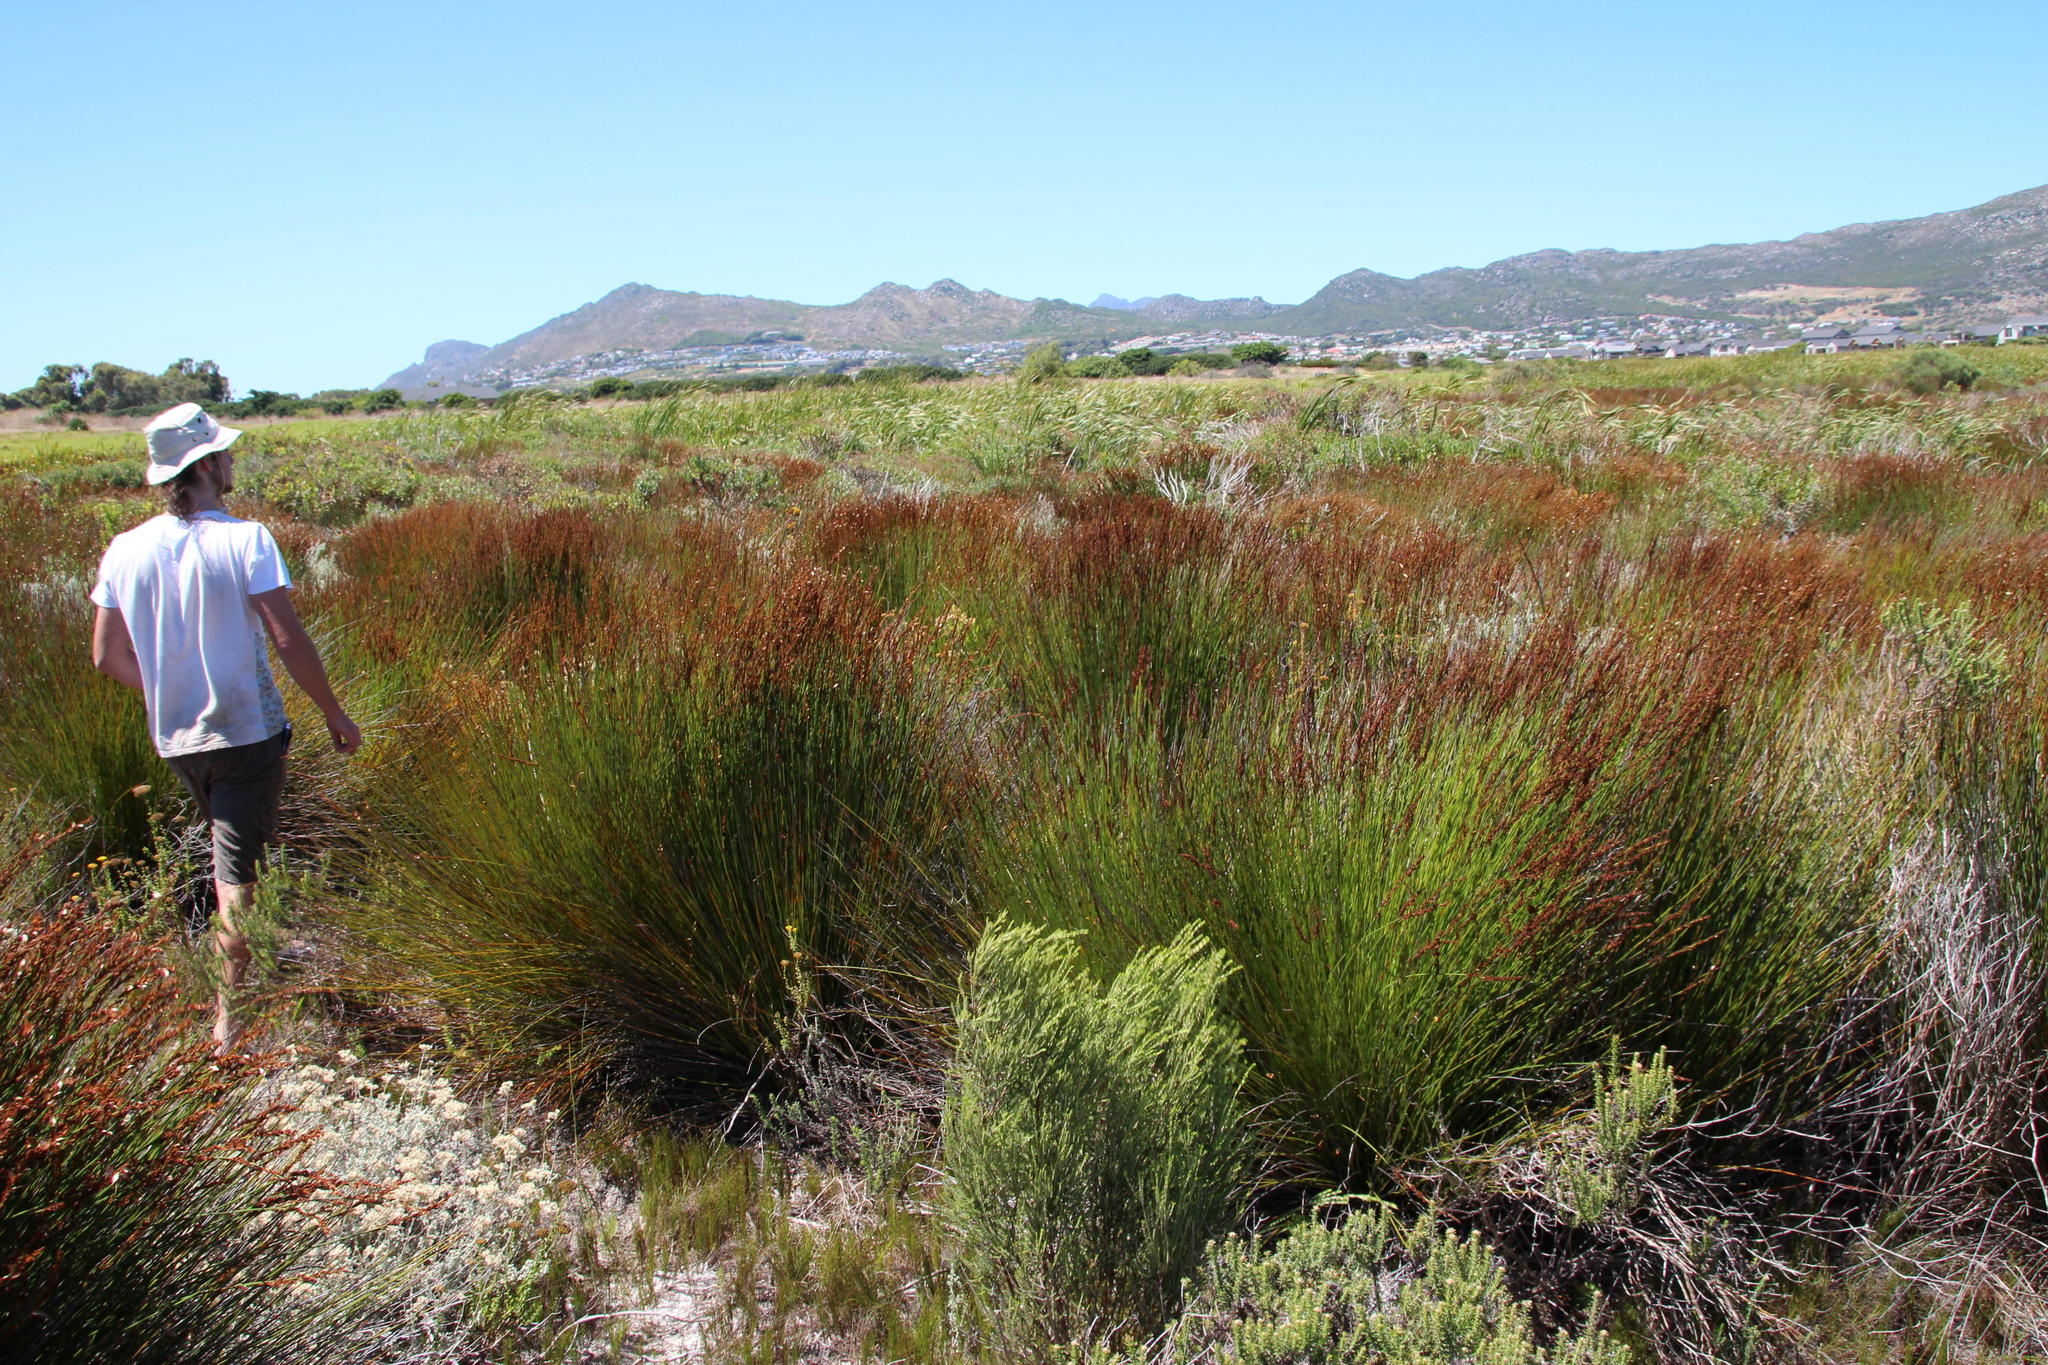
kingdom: Plantae
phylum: Tracheophyta
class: Liliopsida
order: Poales
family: Restionaceae
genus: Elegia
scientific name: Elegia tectorum
